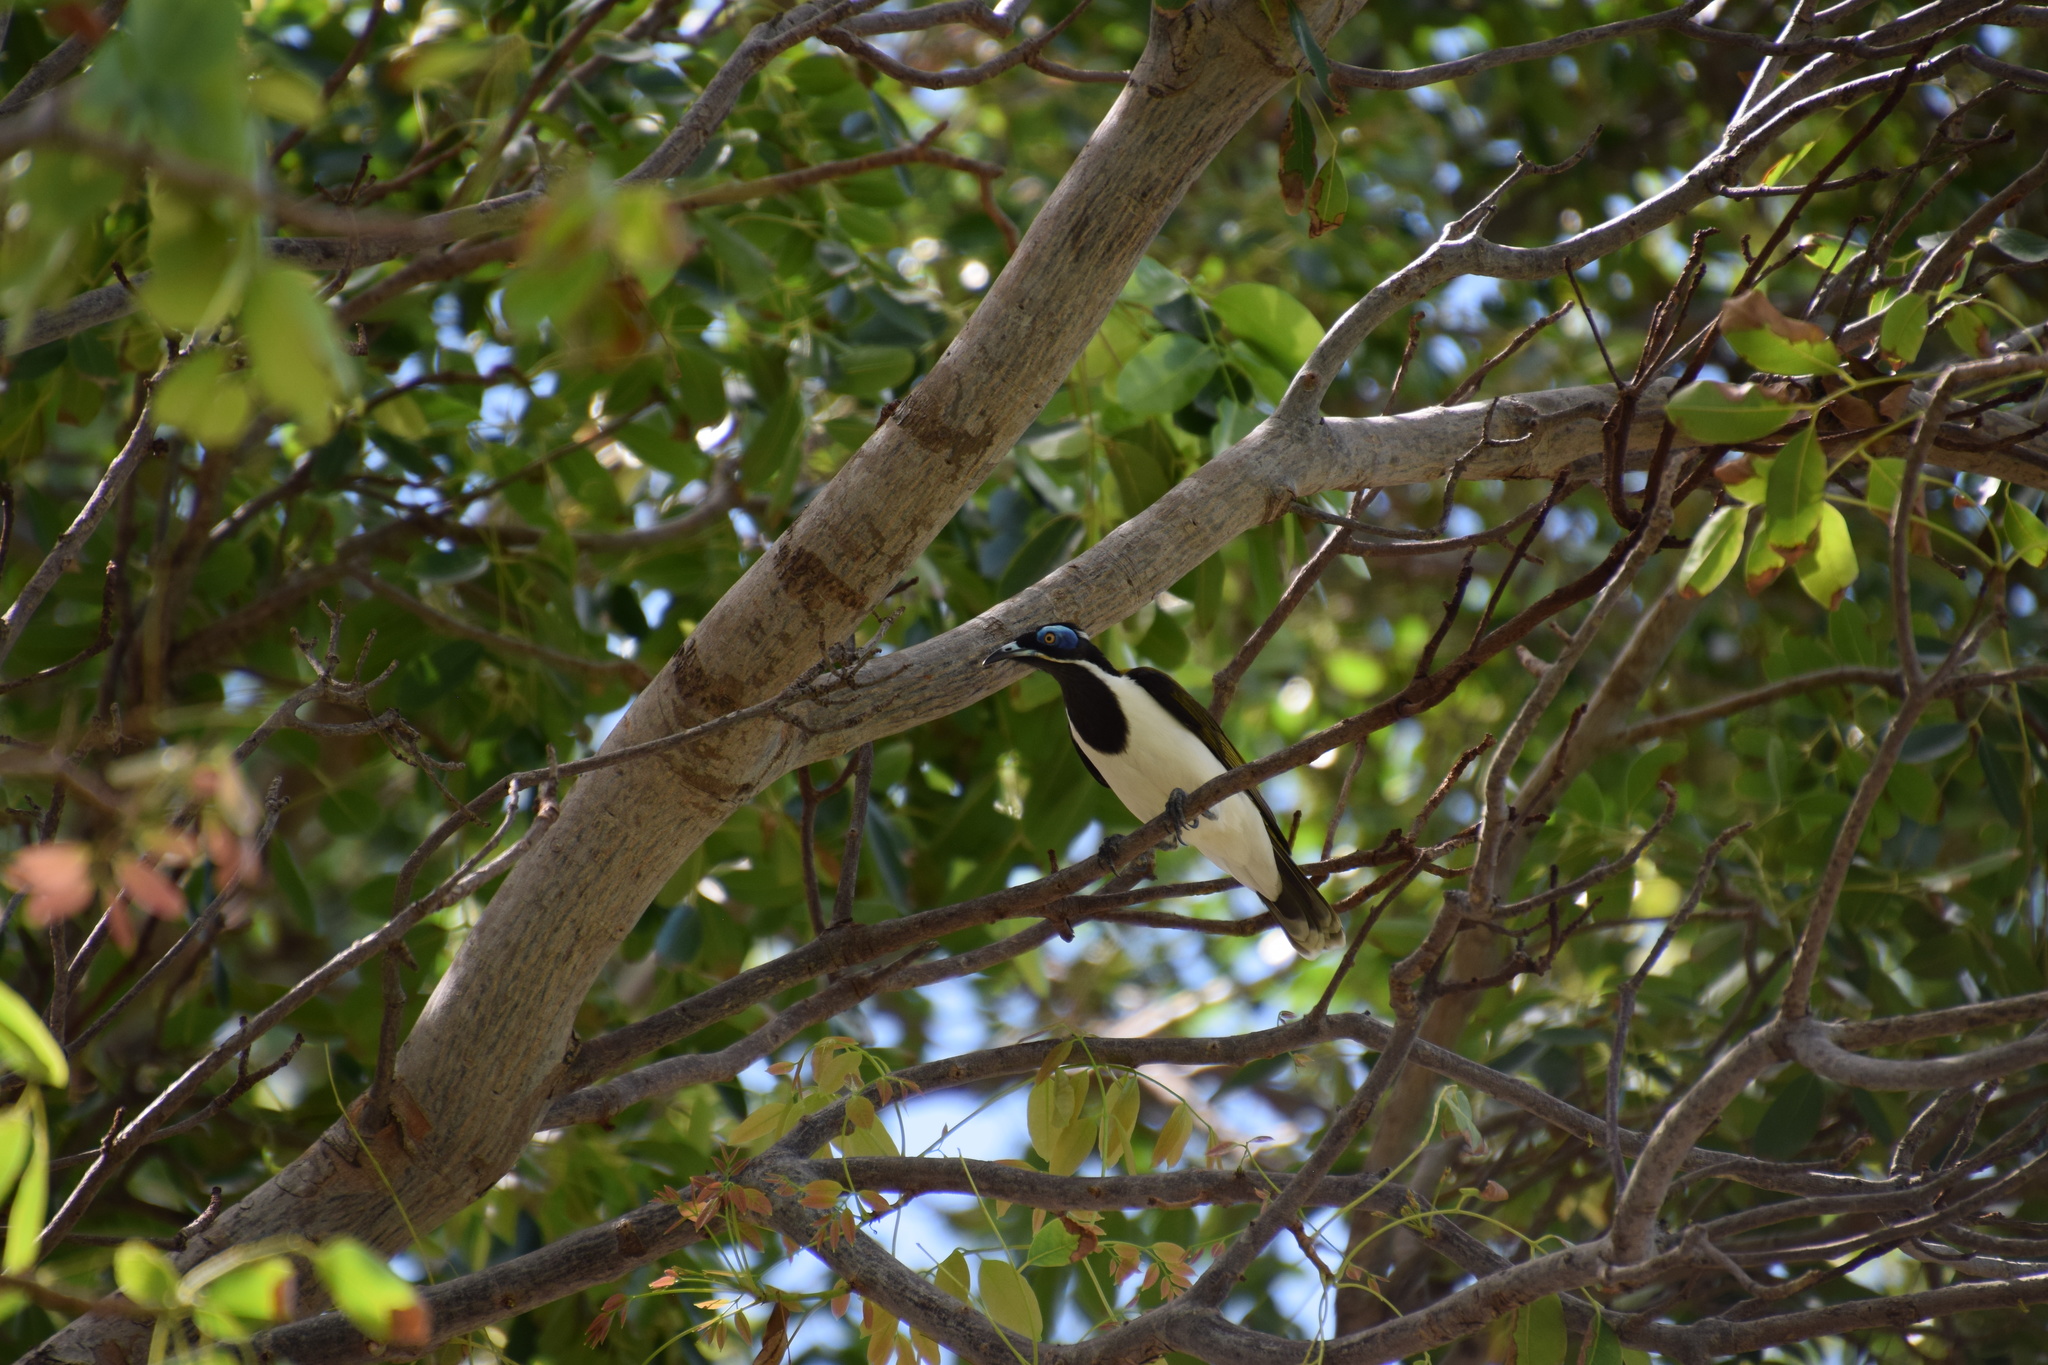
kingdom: Animalia
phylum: Chordata
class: Aves
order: Passeriformes
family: Meliphagidae
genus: Entomyzon
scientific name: Entomyzon cyanotis
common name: Blue-faced honeyeater
